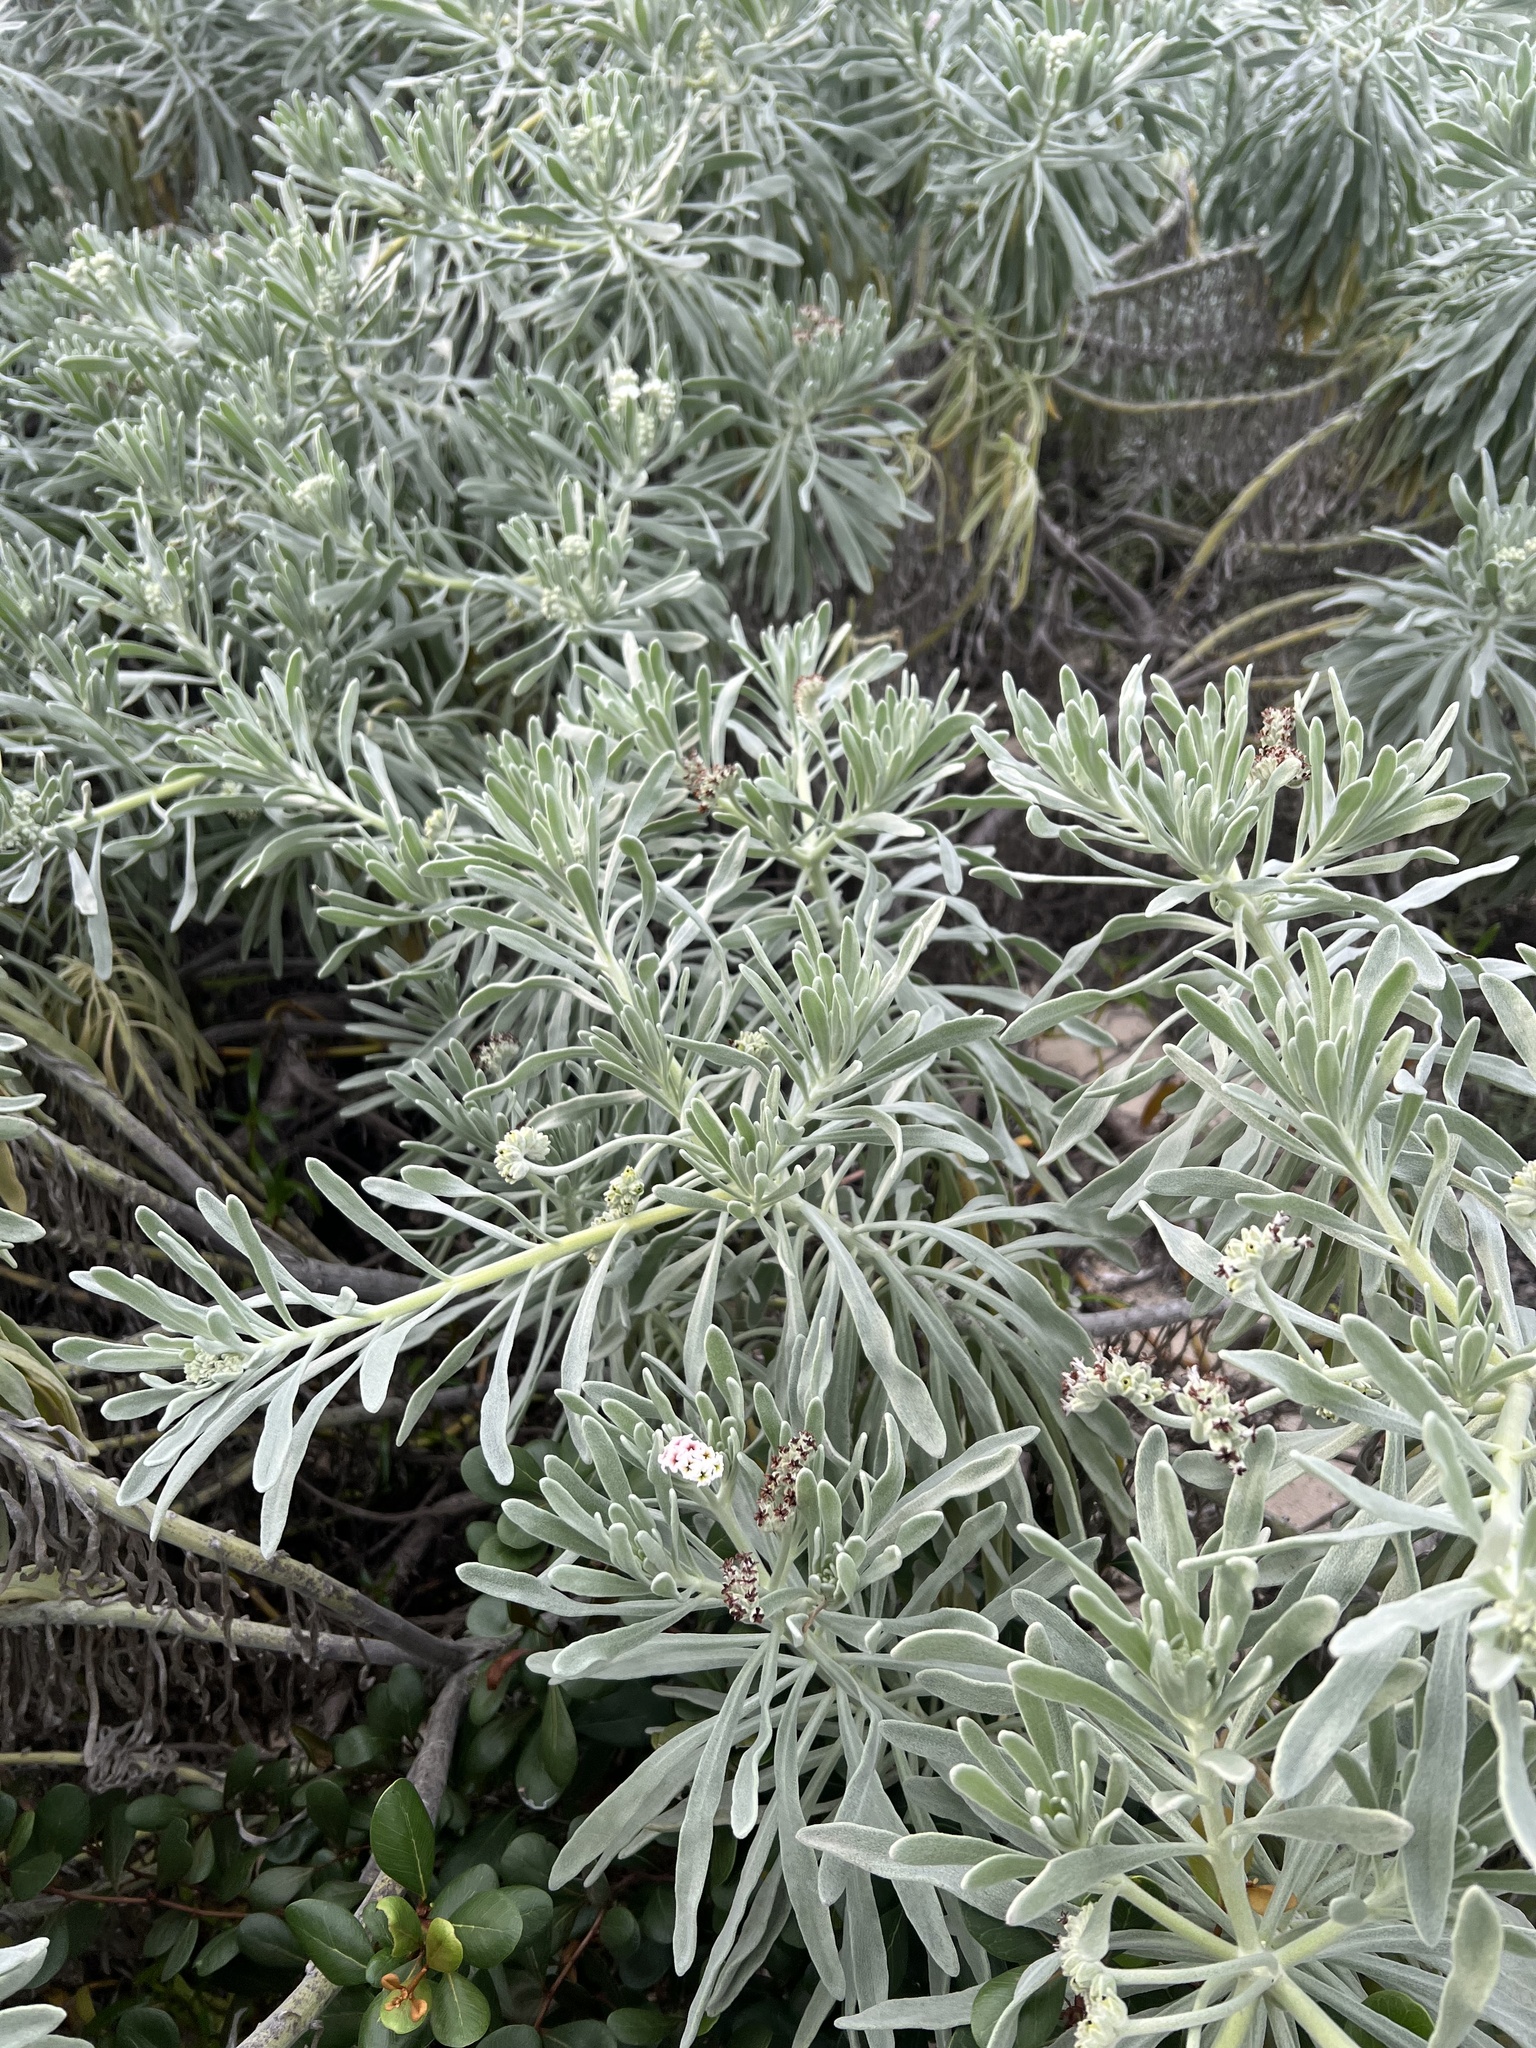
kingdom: Plantae
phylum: Tracheophyta
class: Magnoliopsida
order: Boraginales
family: Heliotropiaceae
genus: Tournefortia
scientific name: Tournefortia gnaphalodes
